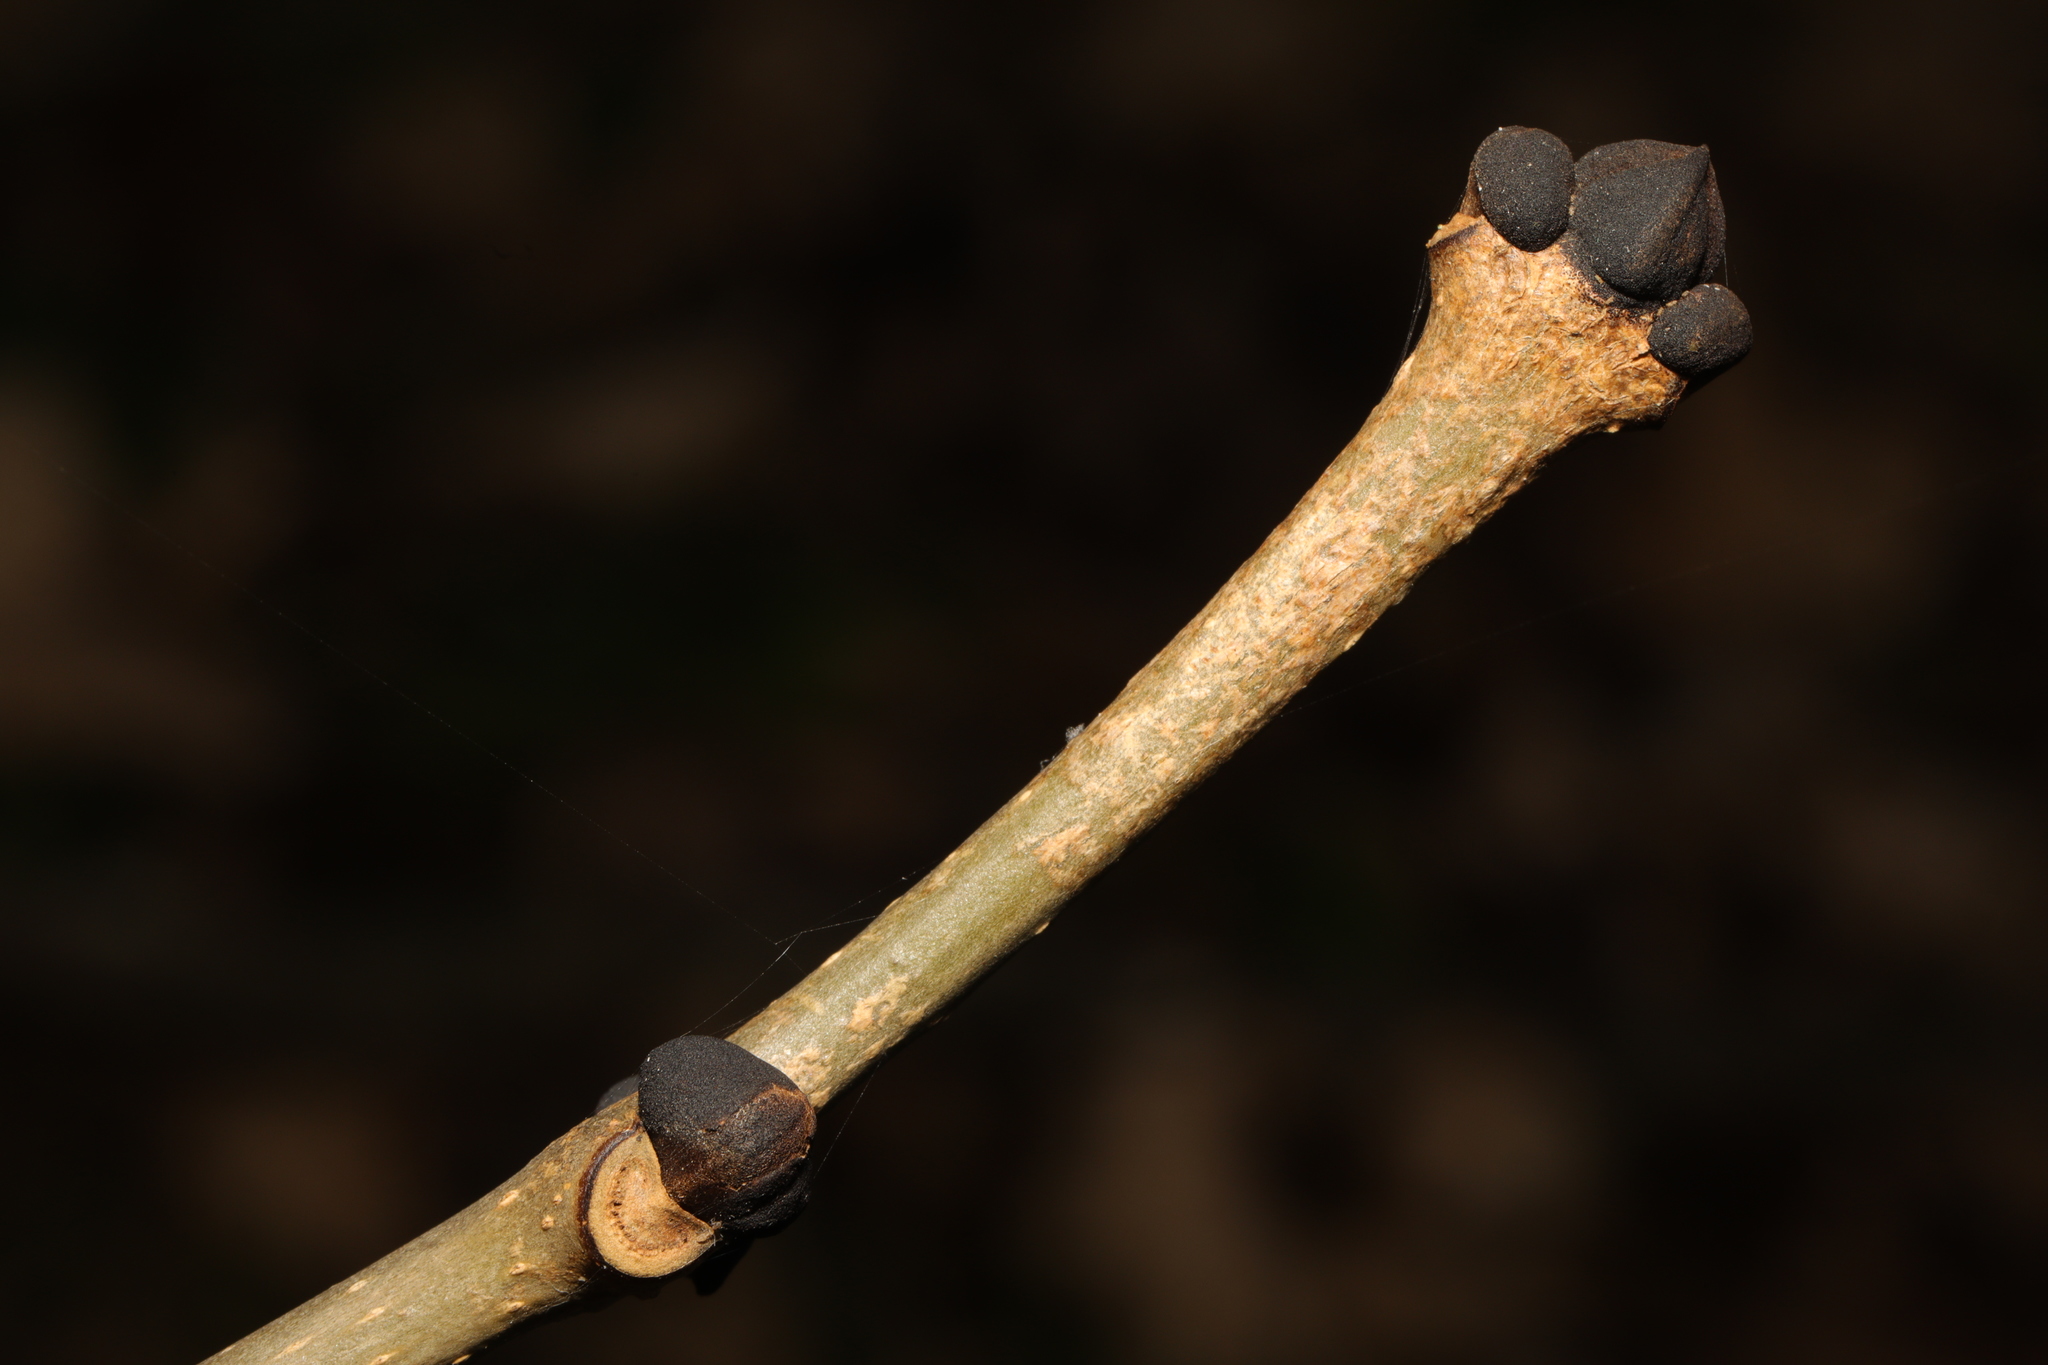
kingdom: Plantae
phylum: Tracheophyta
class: Magnoliopsida
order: Lamiales
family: Oleaceae
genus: Fraxinus
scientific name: Fraxinus excelsior
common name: European ash
